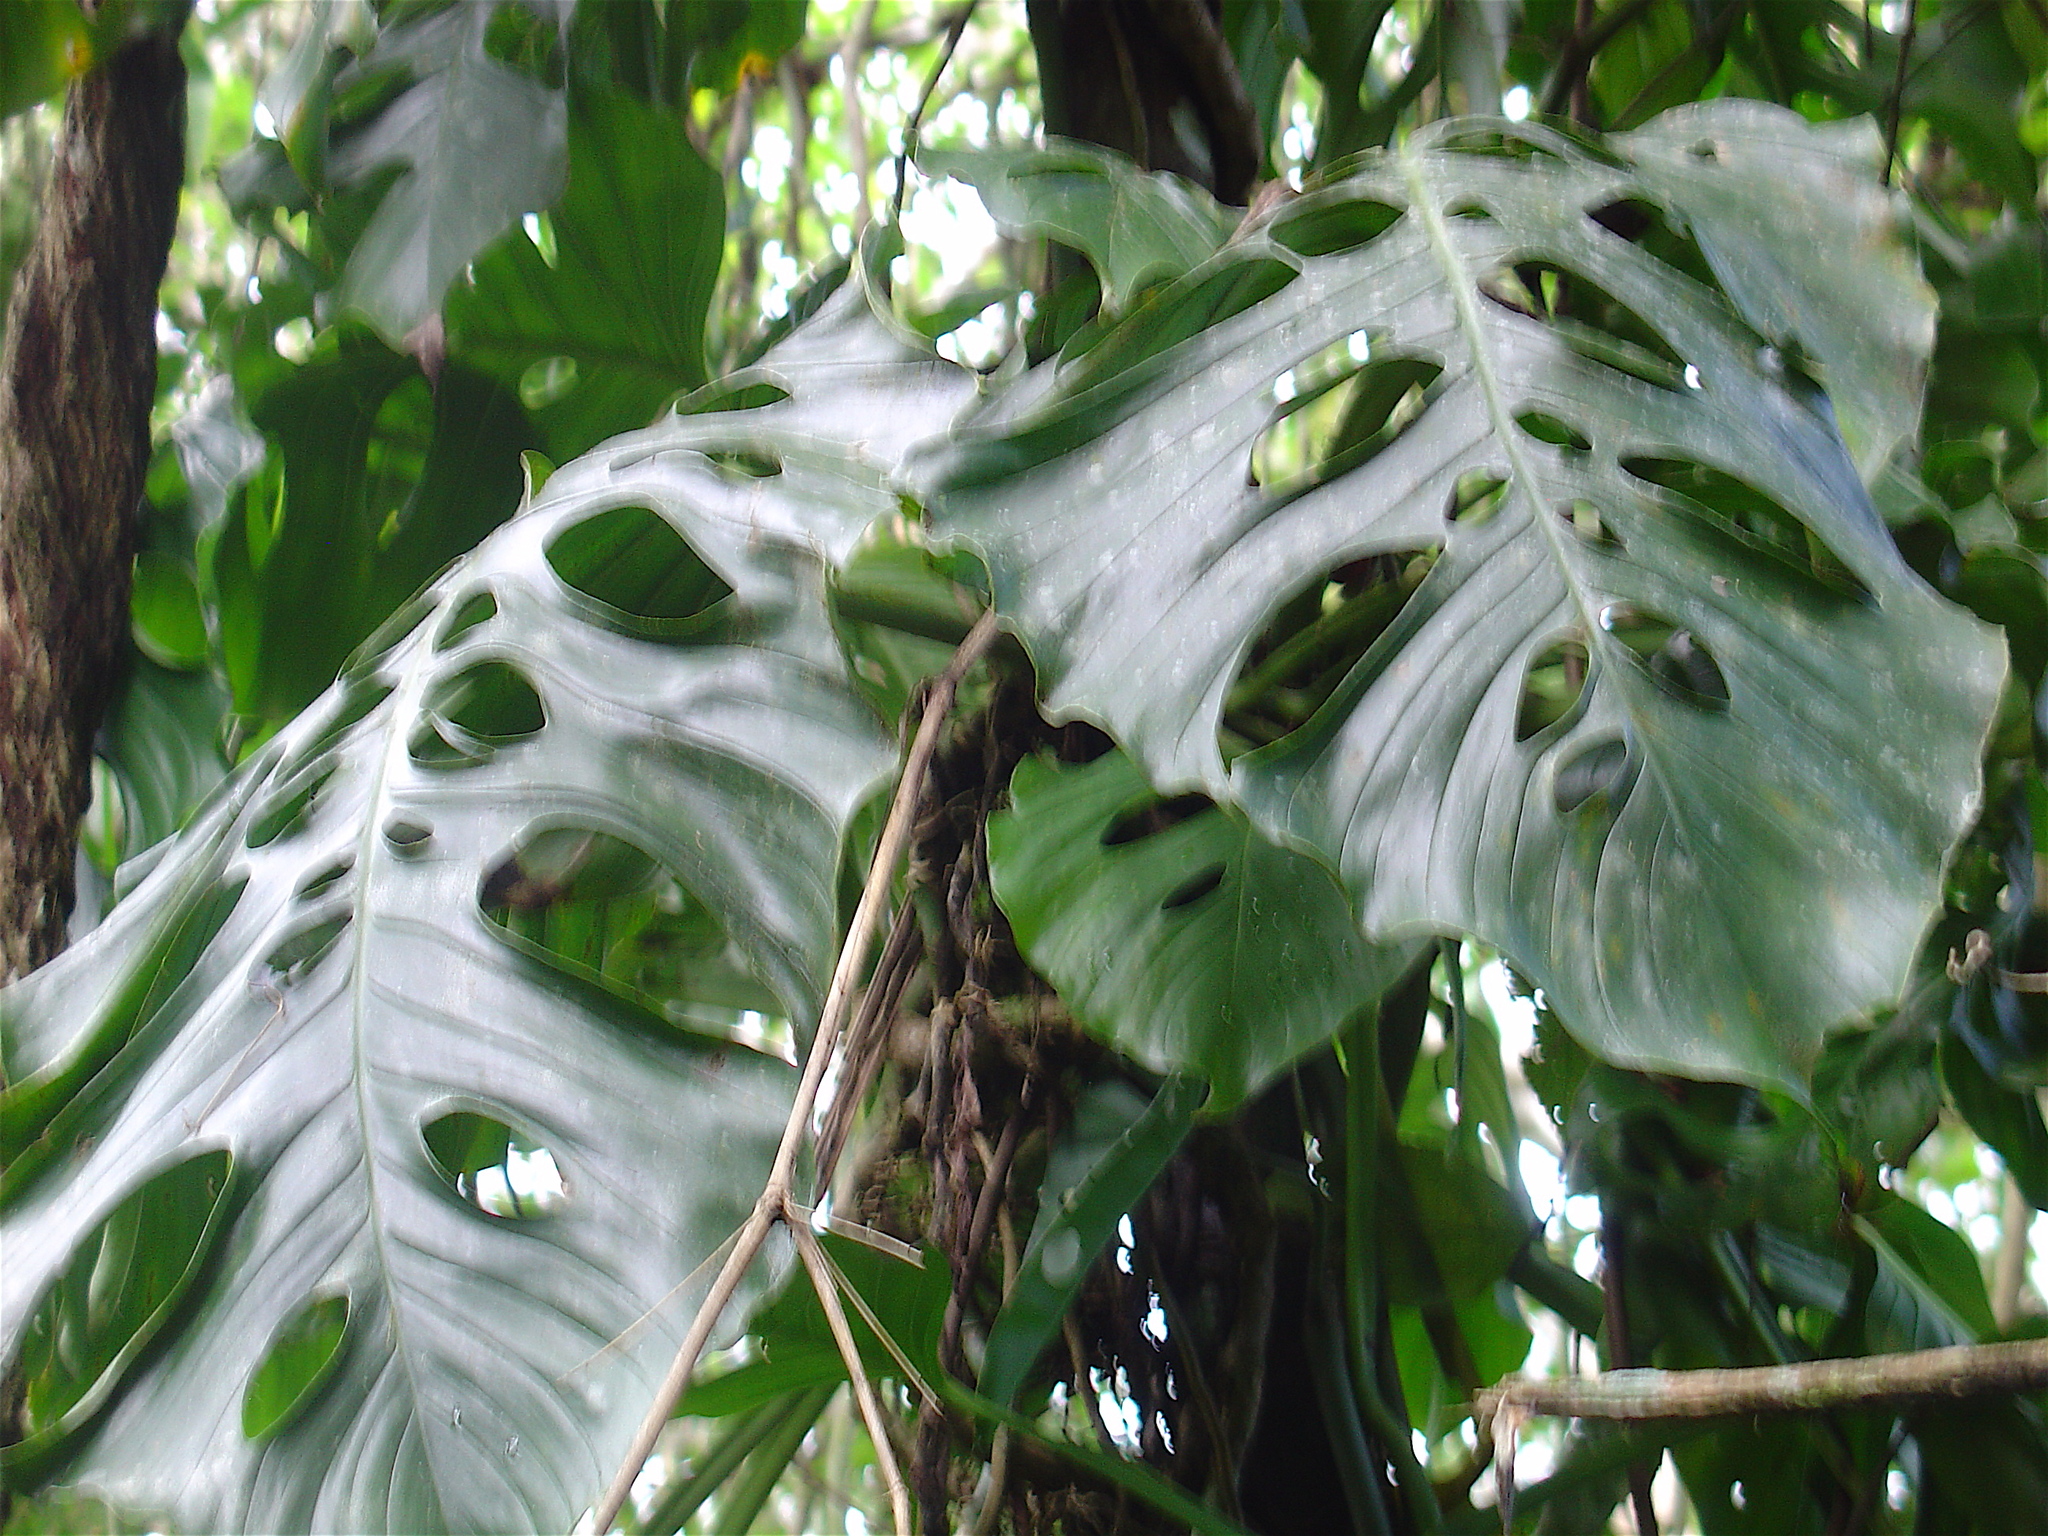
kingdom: Plantae
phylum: Tracheophyta
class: Liliopsida
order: Alismatales
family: Araceae
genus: Monstera
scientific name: Monstera acacoyaguensis
